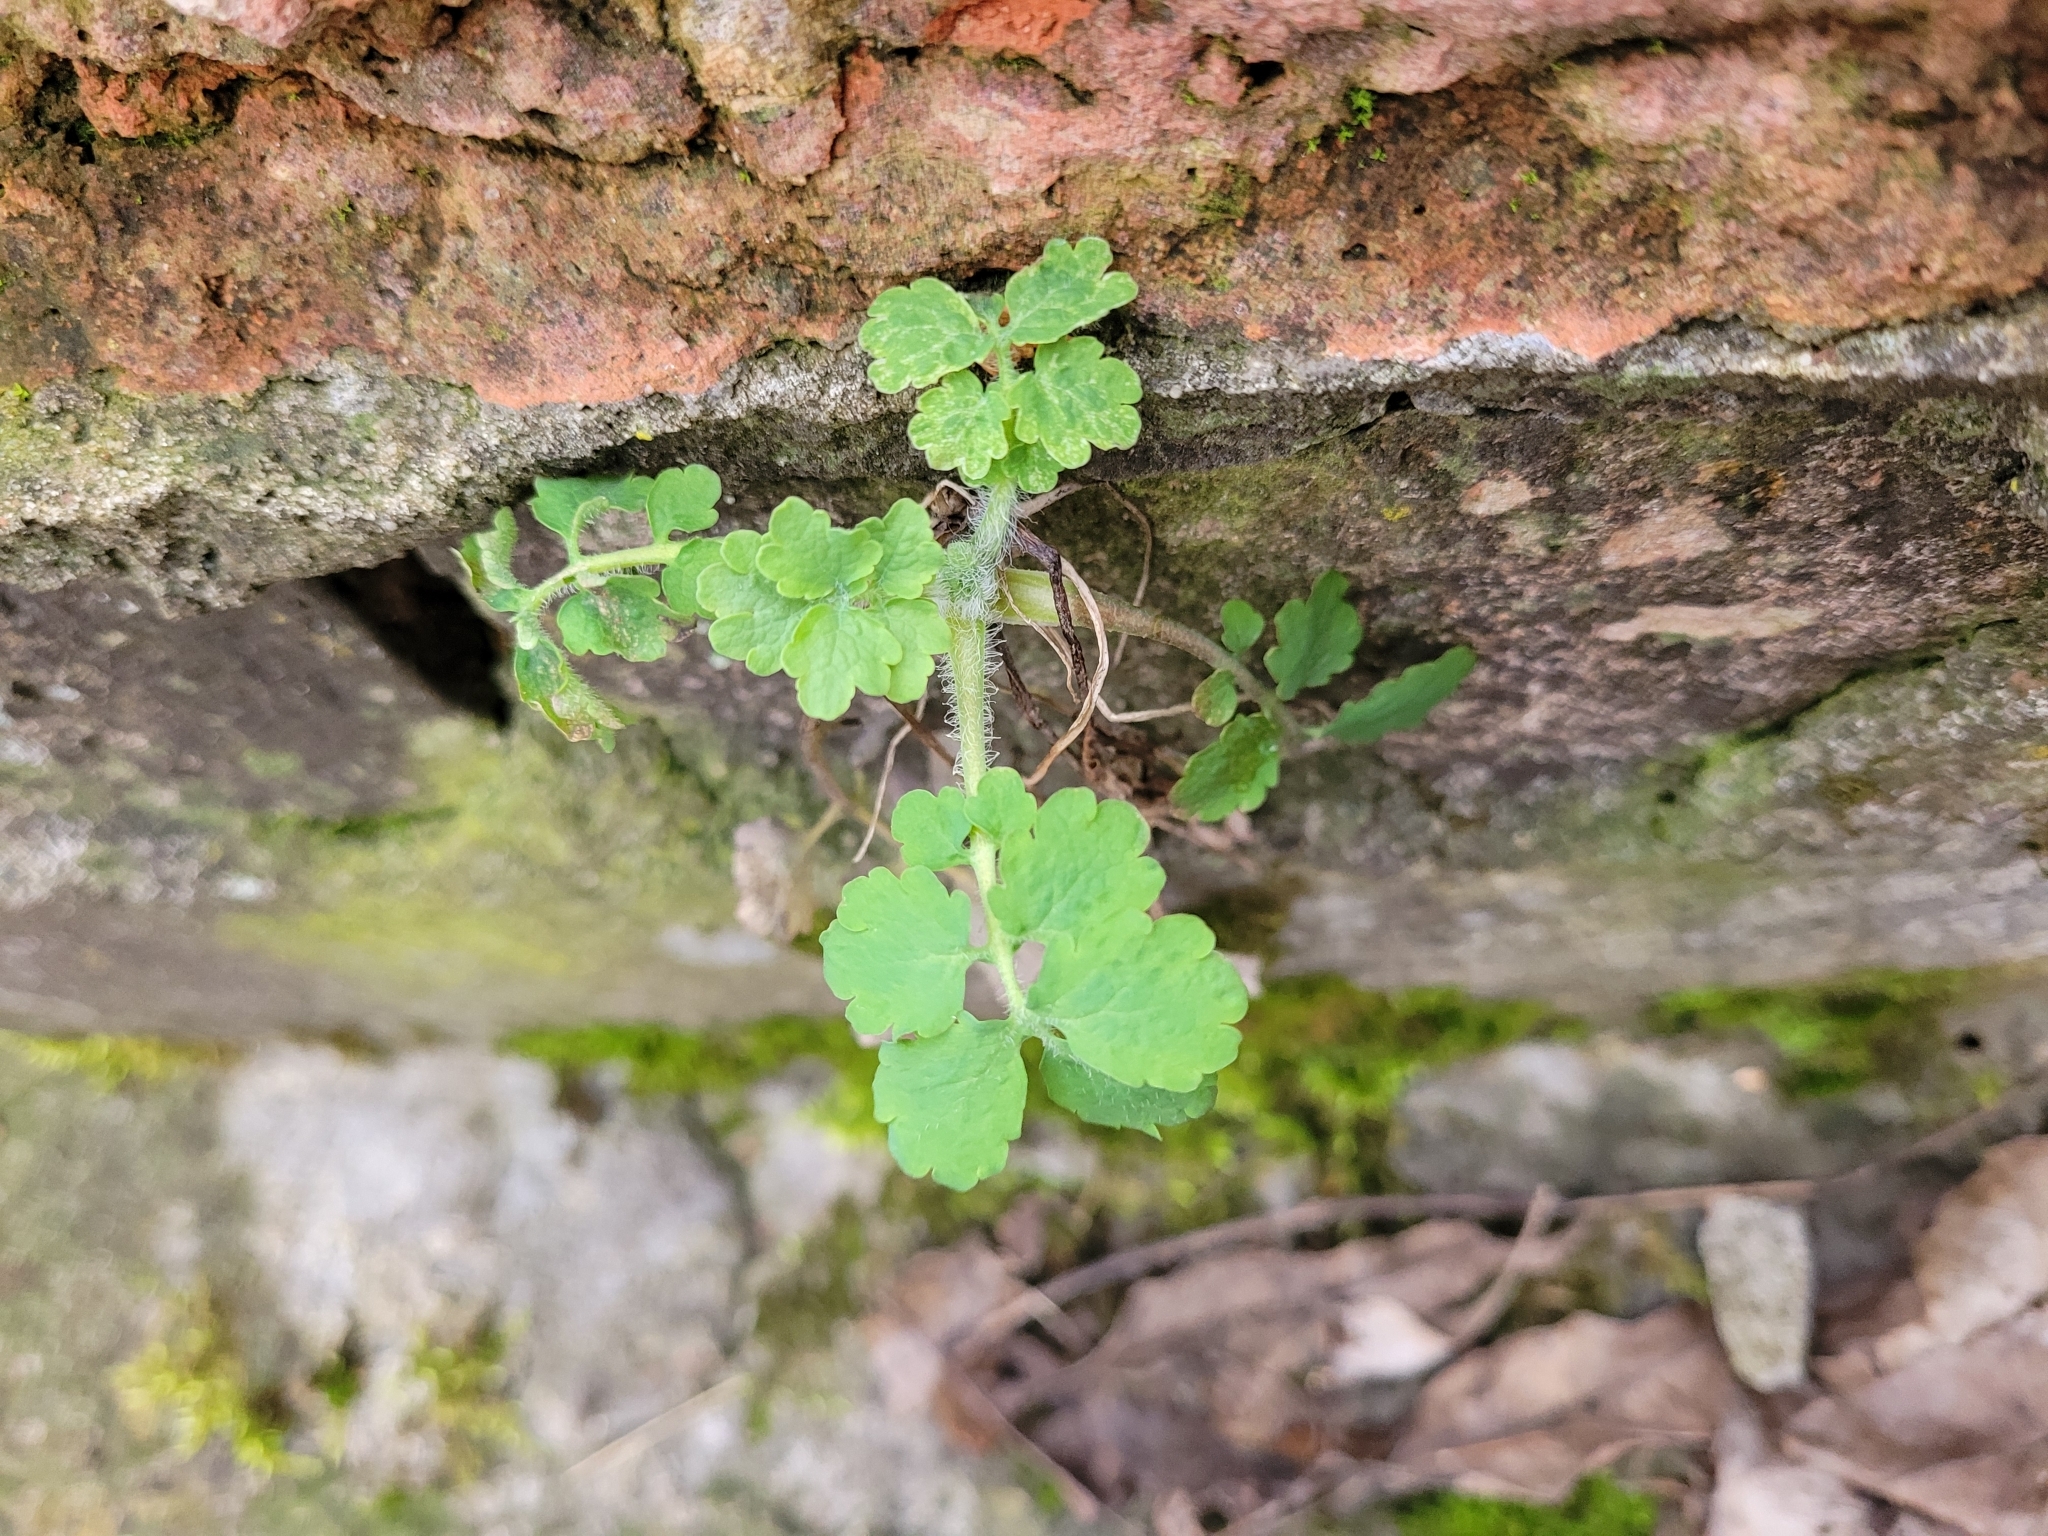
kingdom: Plantae
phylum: Tracheophyta
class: Magnoliopsida
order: Ranunculales
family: Papaveraceae
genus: Chelidonium
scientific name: Chelidonium majus
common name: Greater celandine
